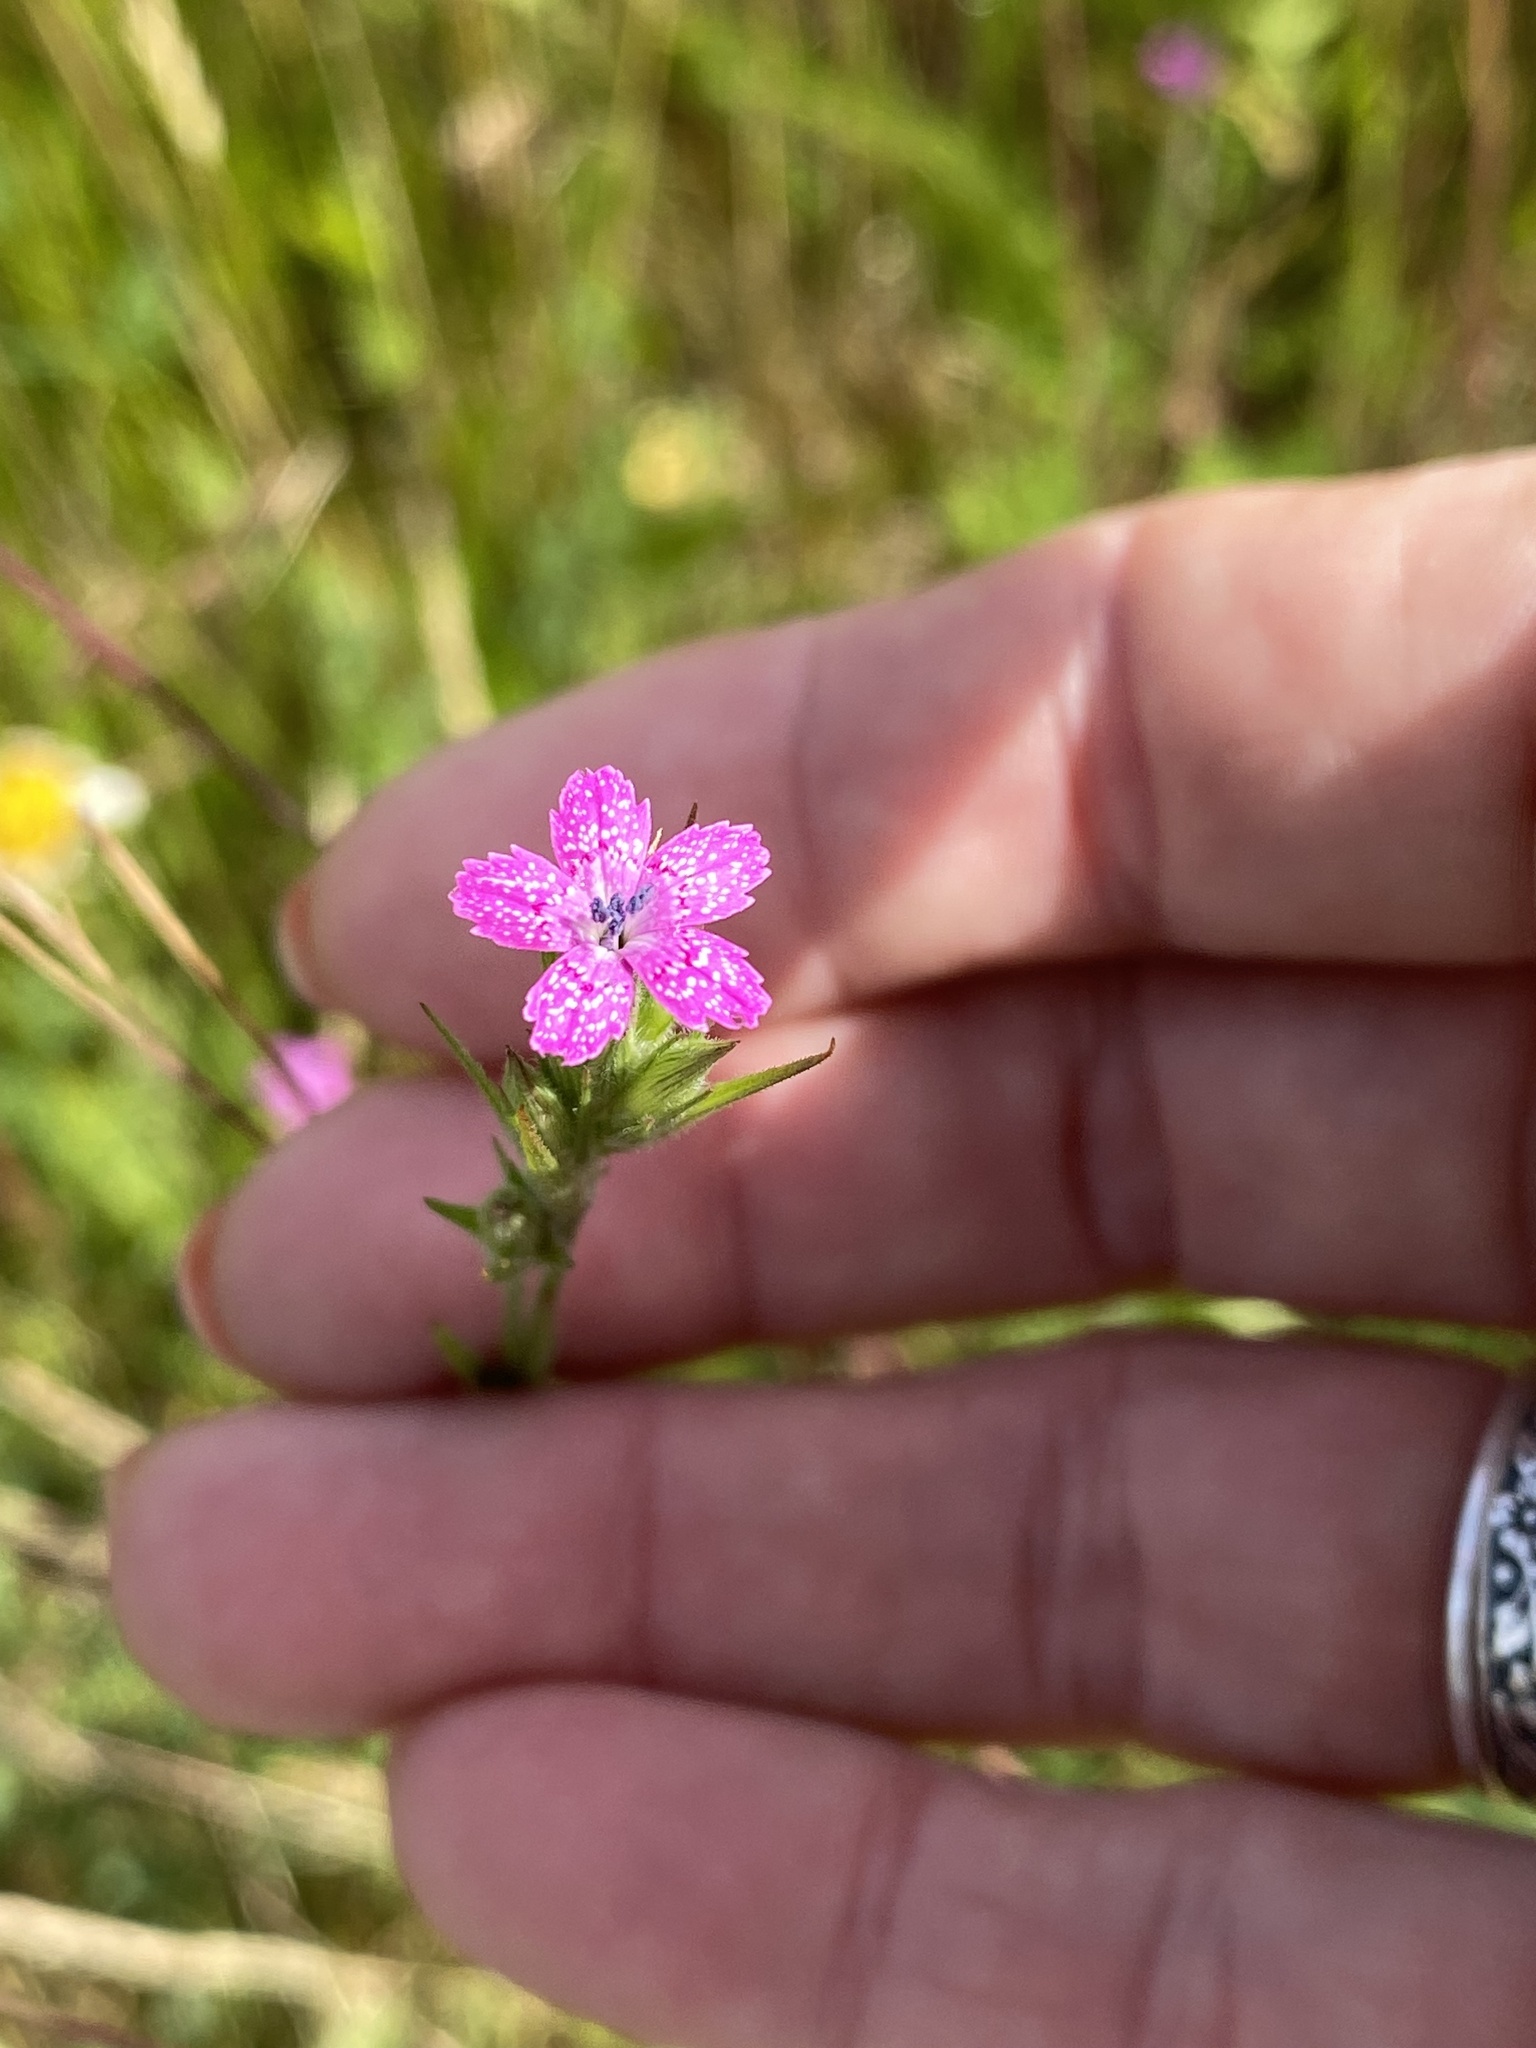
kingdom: Plantae
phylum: Tracheophyta
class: Magnoliopsida
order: Caryophyllales
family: Caryophyllaceae
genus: Dianthus
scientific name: Dianthus armeria
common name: Deptford pink
